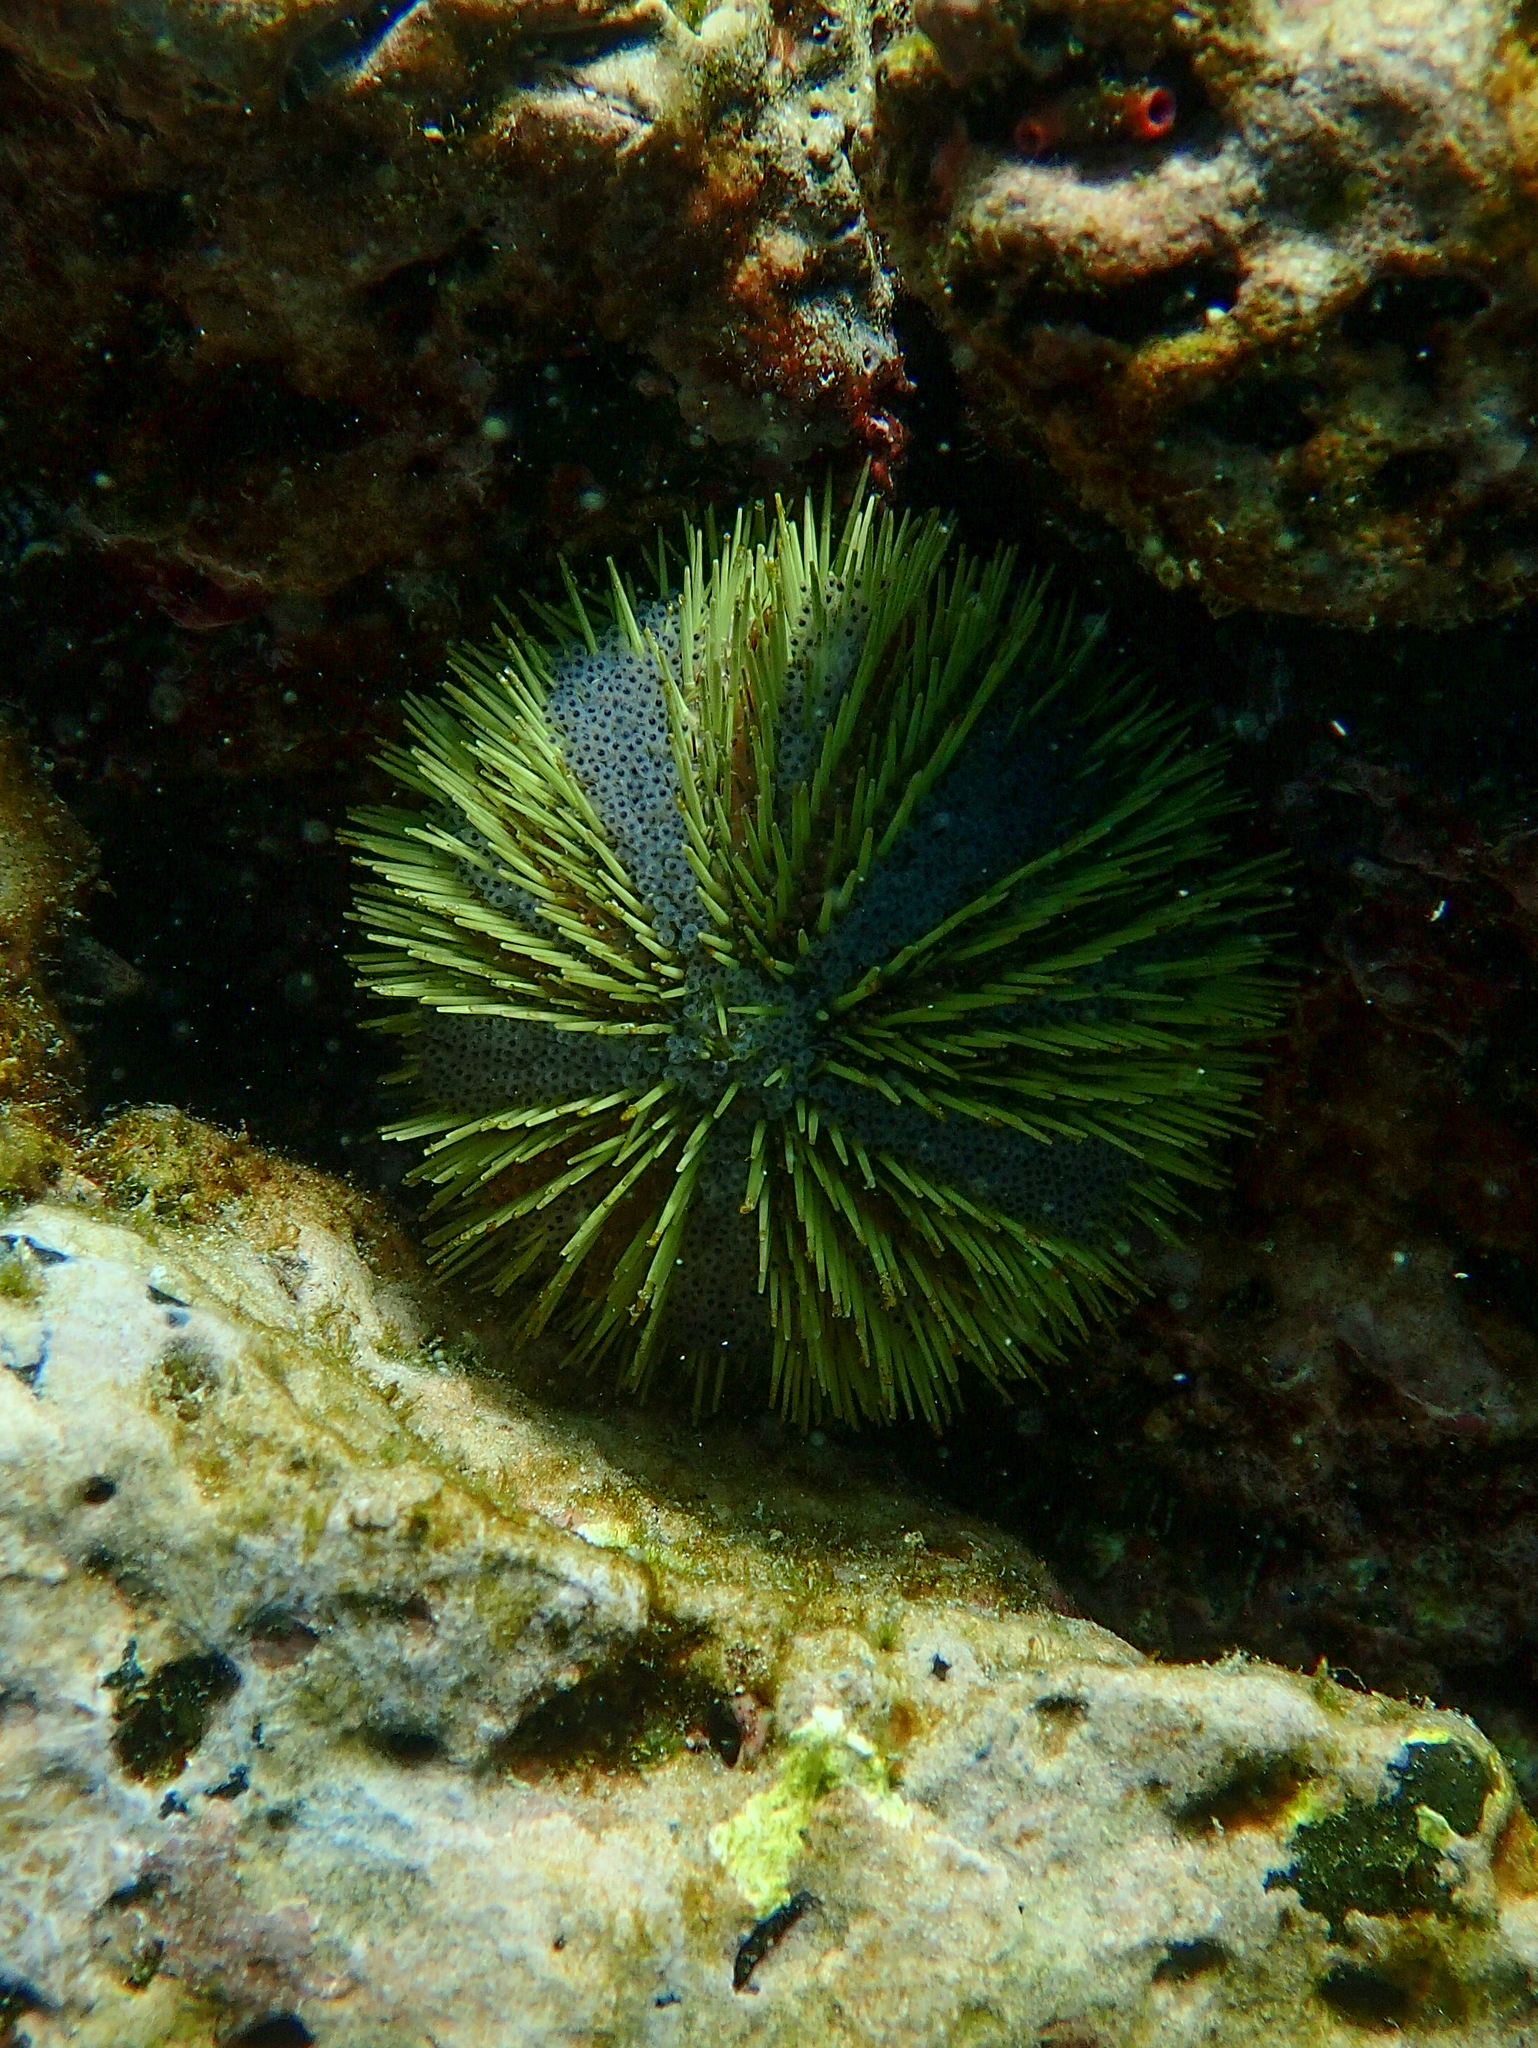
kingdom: Animalia
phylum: Echinodermata
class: Echinoidea
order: Camarodonta
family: Toxopneustidae
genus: Lytechinus
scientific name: Lytechinus semituberculatus
